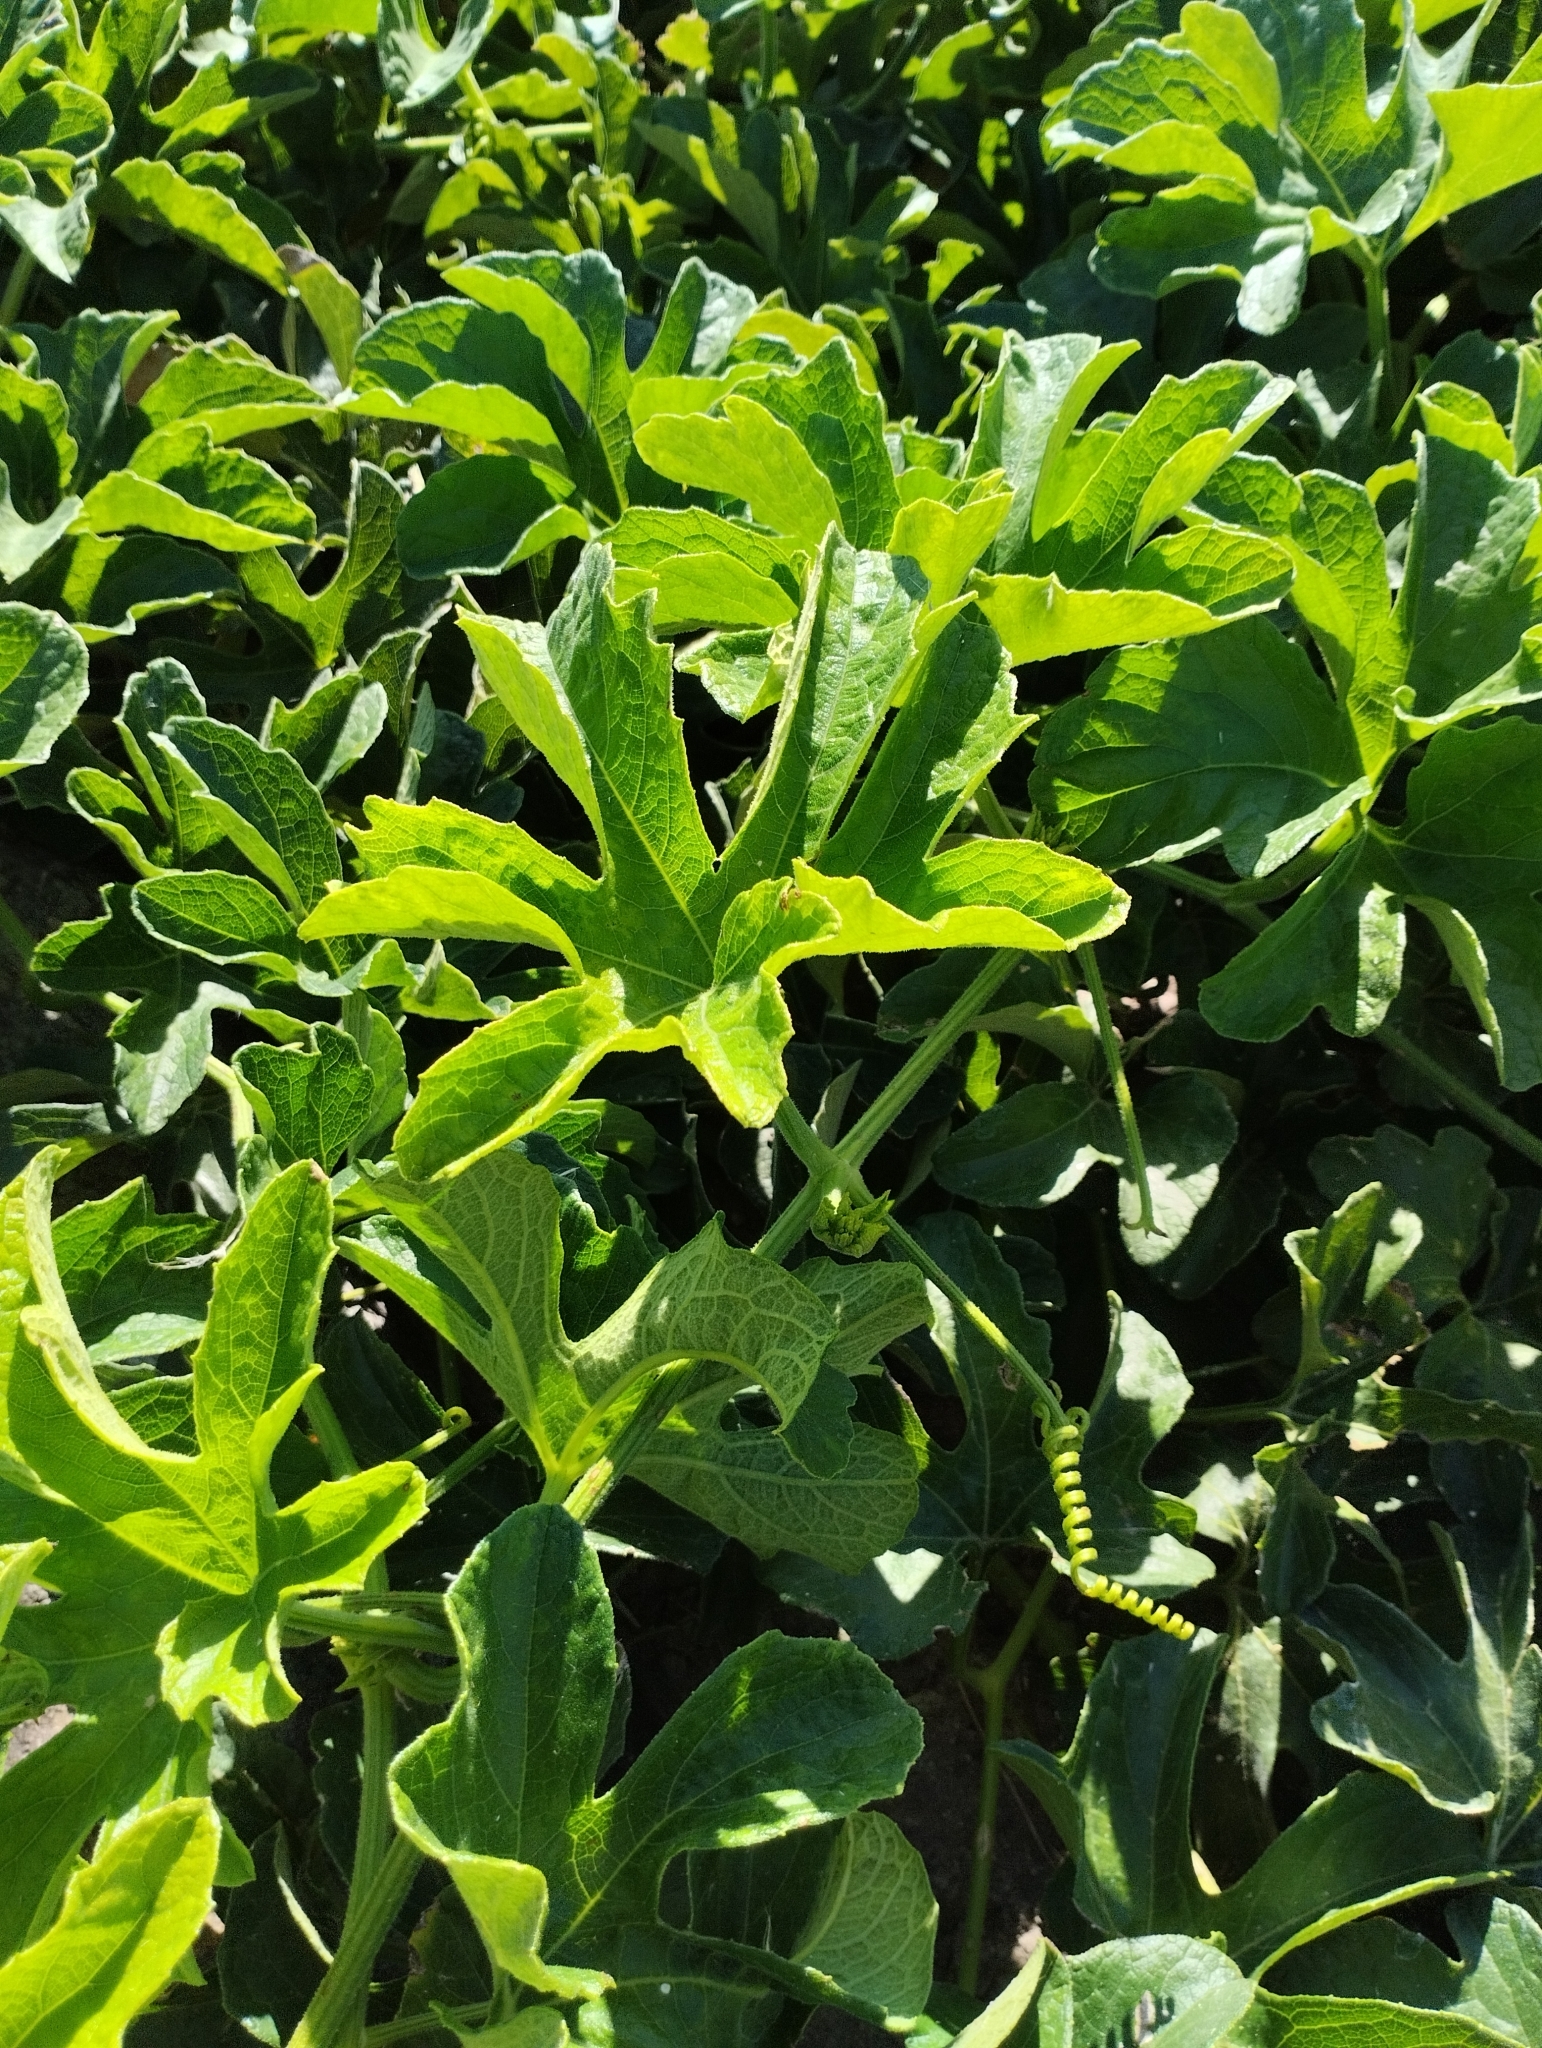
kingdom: Plantae
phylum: Tracheophyta
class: Magnoliopsida
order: Cucurbitales
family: Cucurbitaceae
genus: Cayaponia
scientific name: Cayaponia martiana
